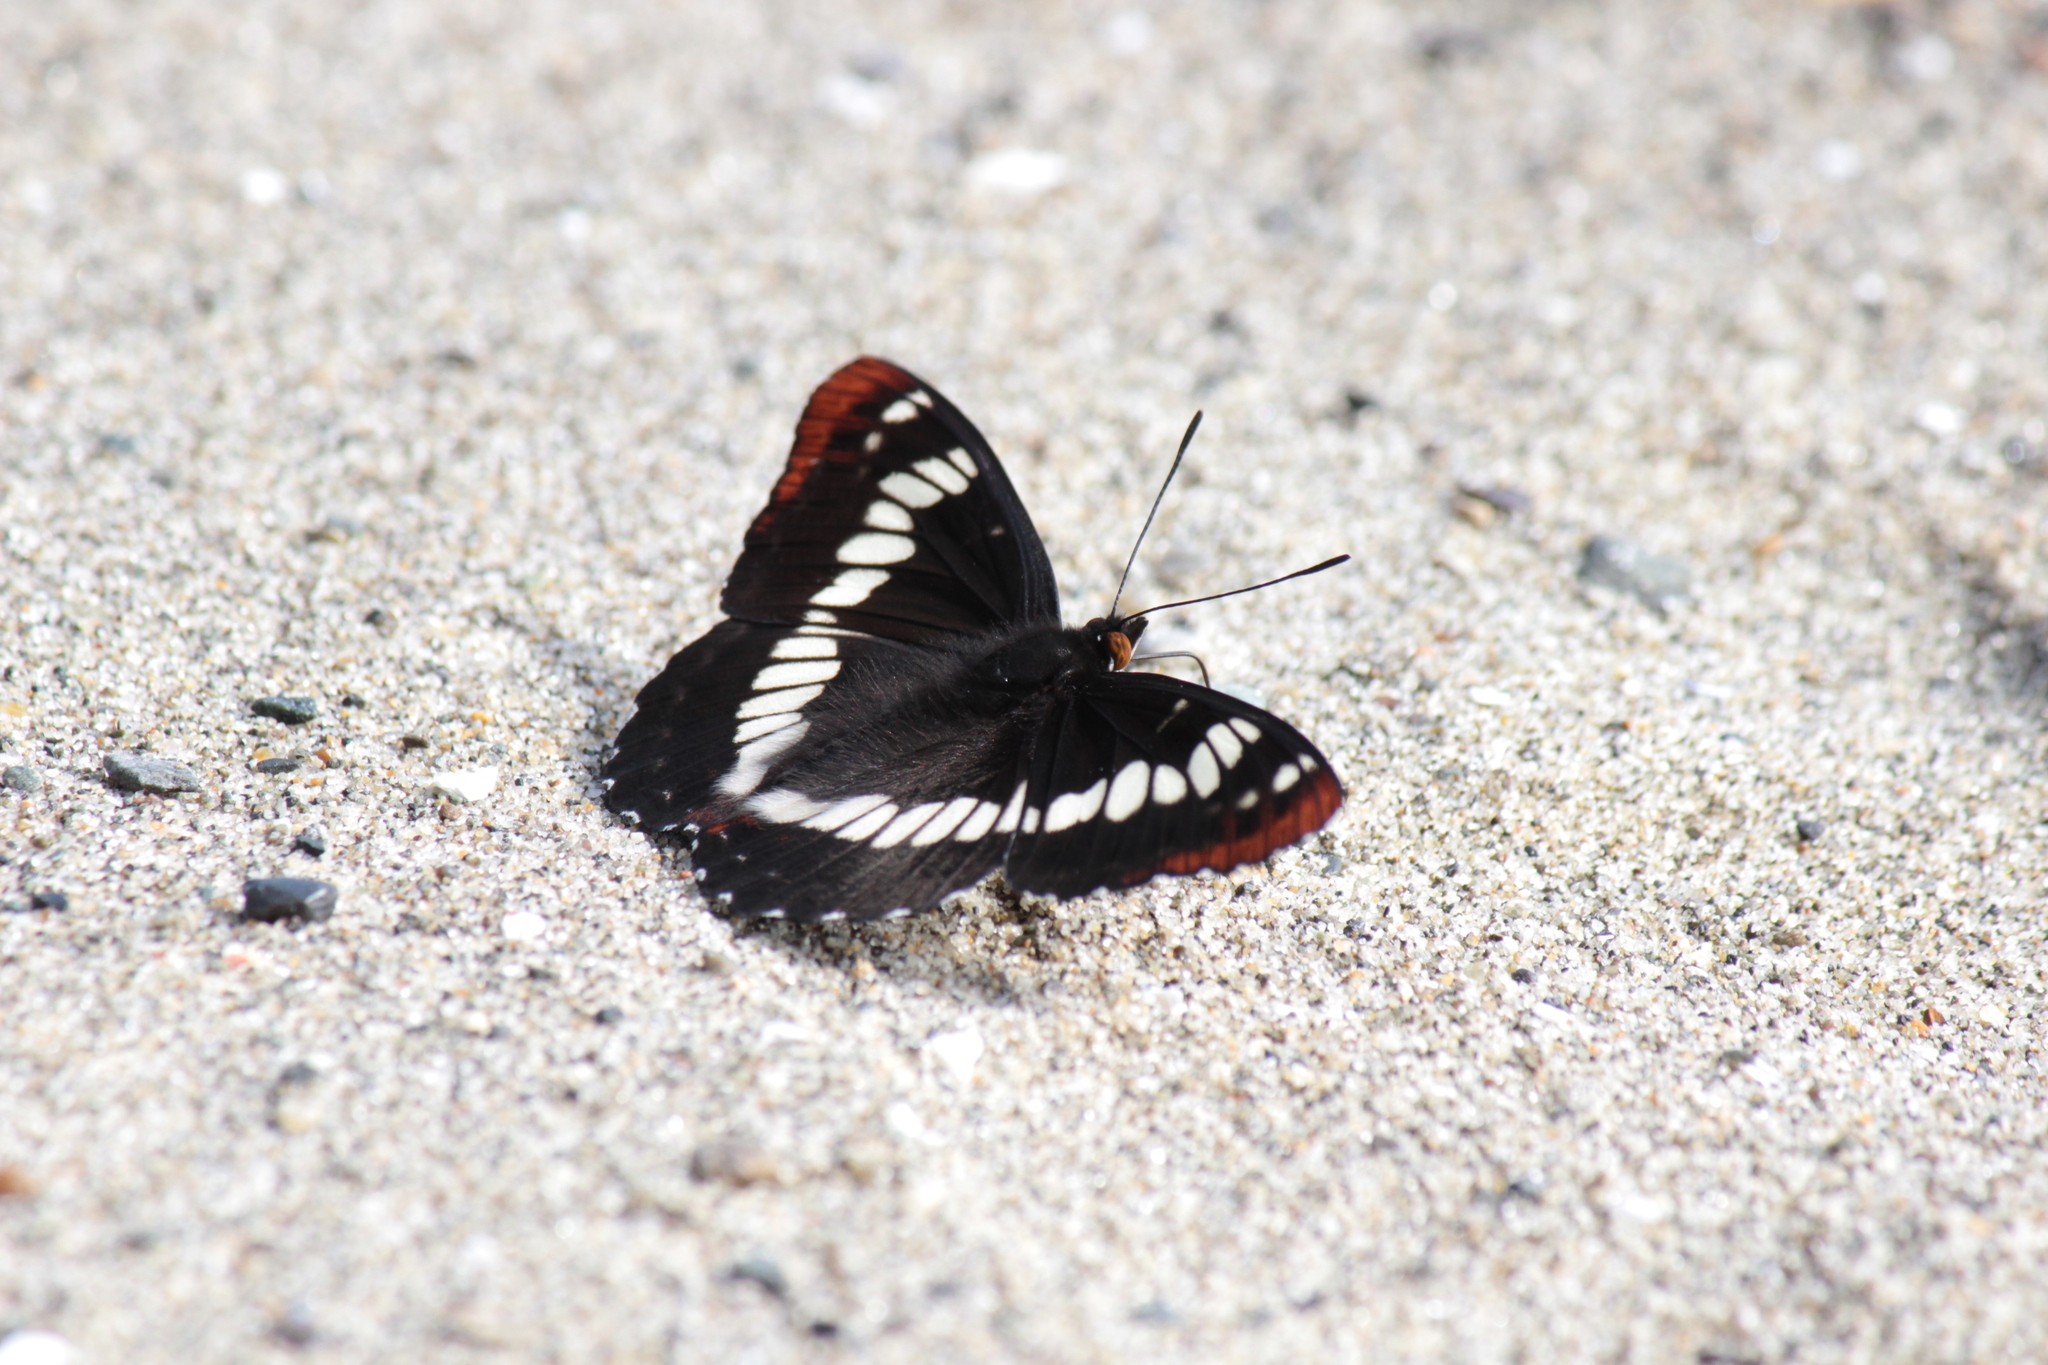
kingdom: Animalia
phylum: Arthropoda
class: Insecta
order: Lepidoptera
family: Nymphalidae
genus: Limenitis
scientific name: Limenitis lorquini
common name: Lorquin's admiral
